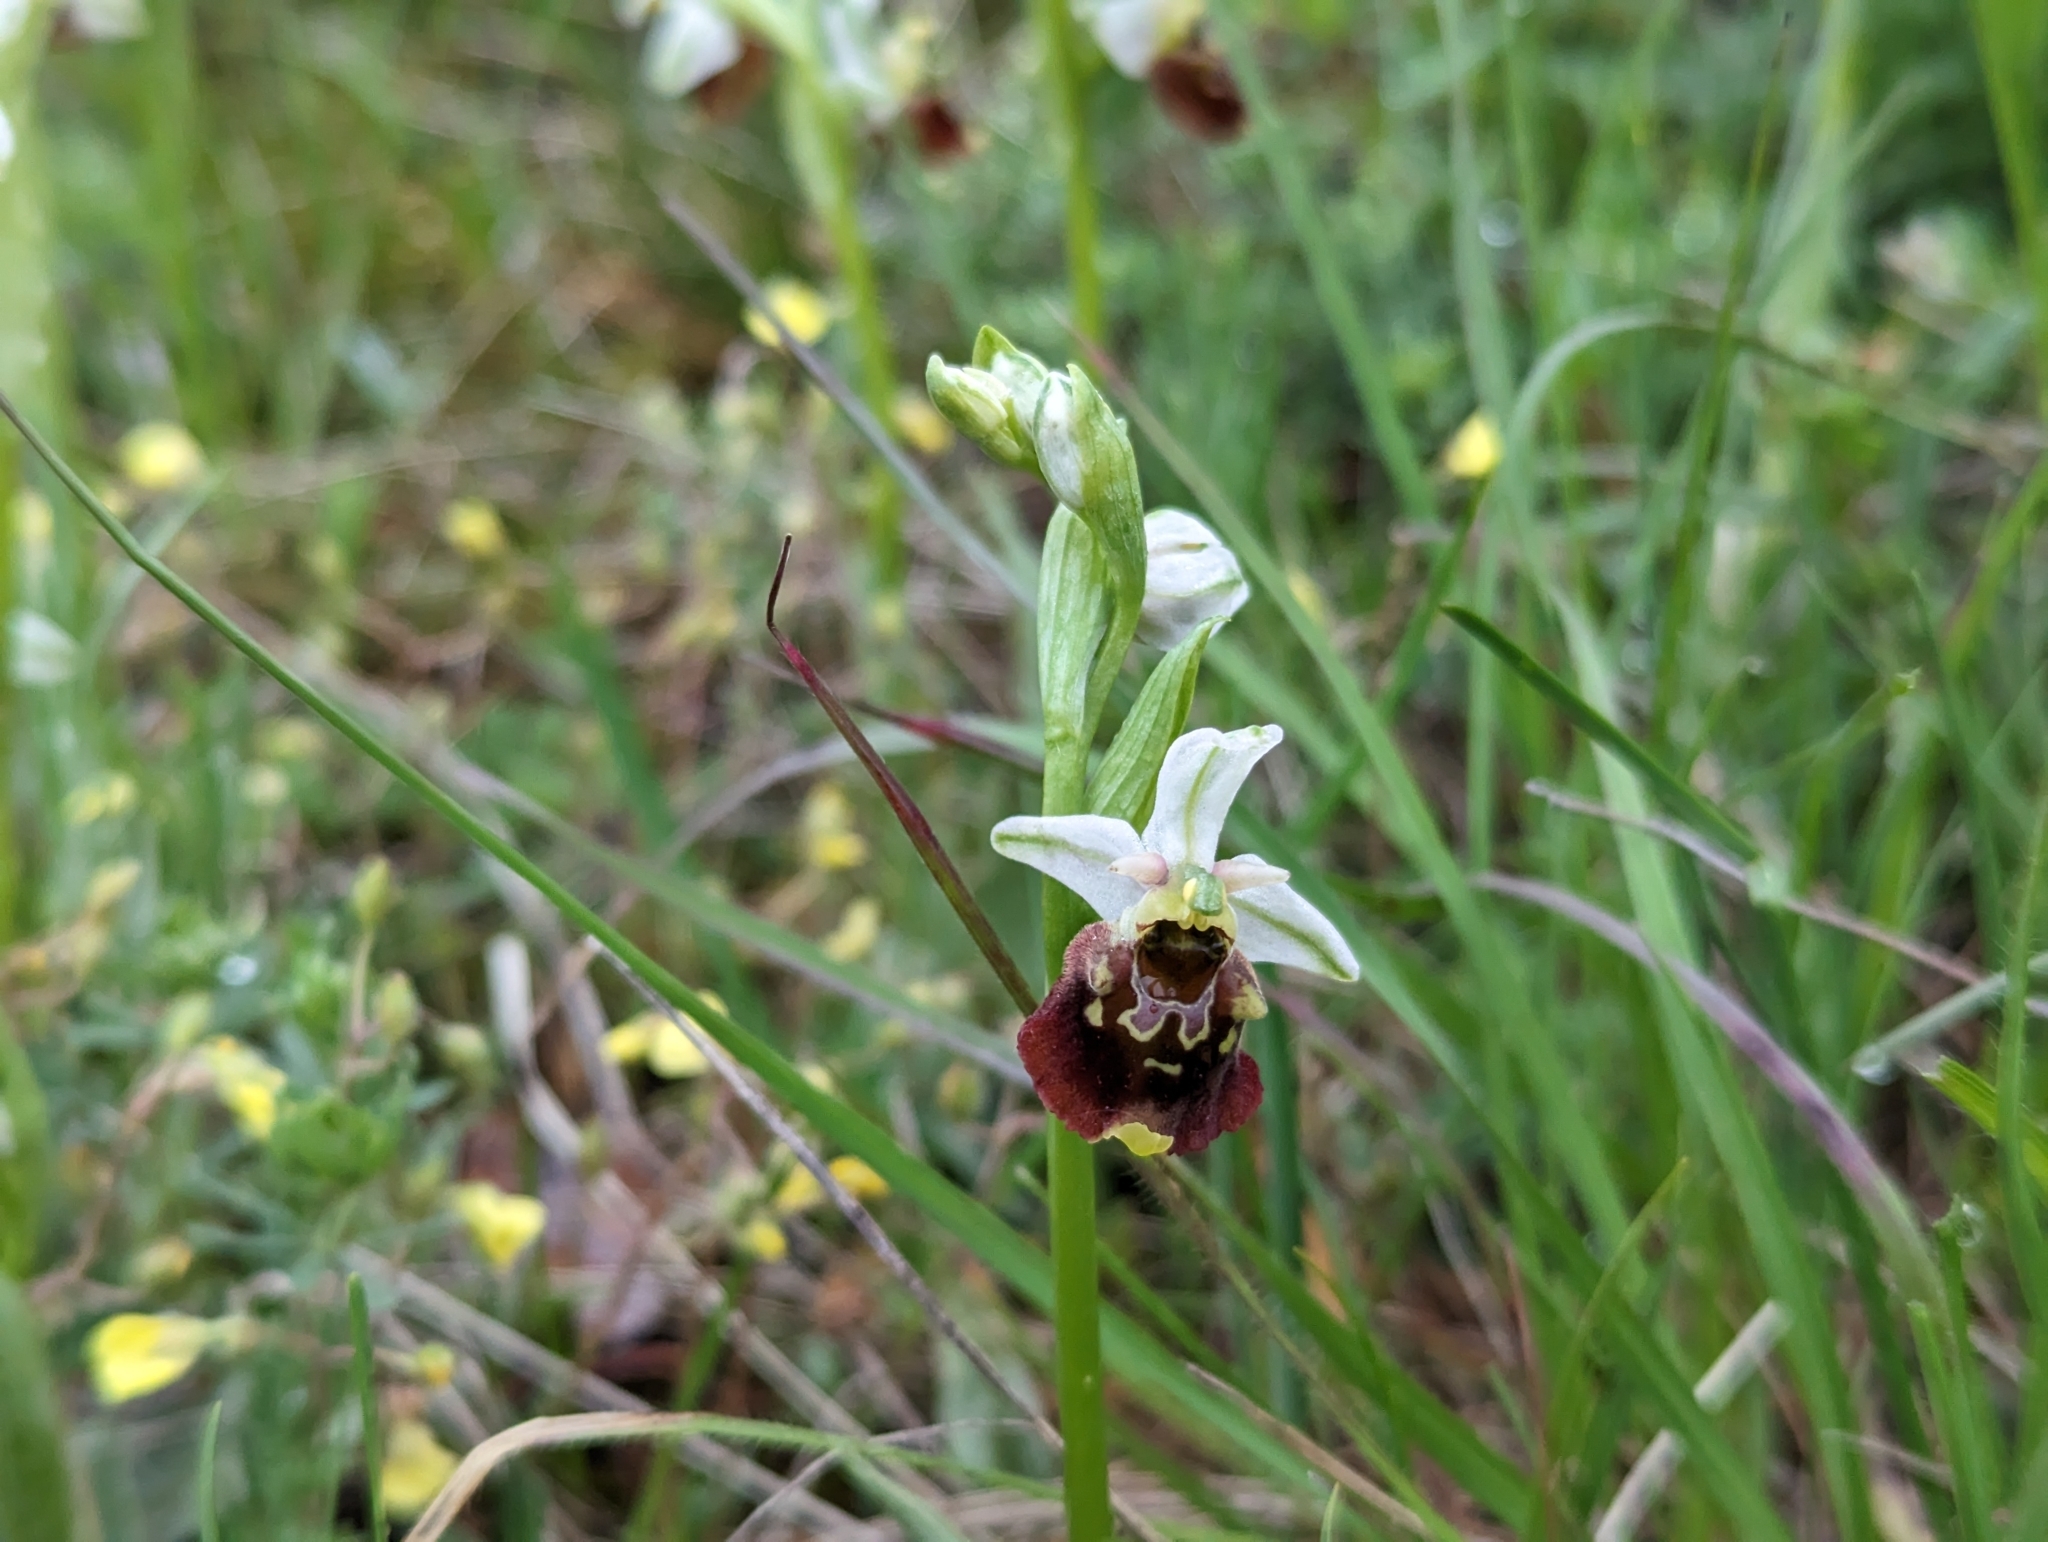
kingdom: Plantae
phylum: Tracheophyta
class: Liliopsida
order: Asparagales
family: Orchidaceae
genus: Ophrys
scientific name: Ophrys holosericea
